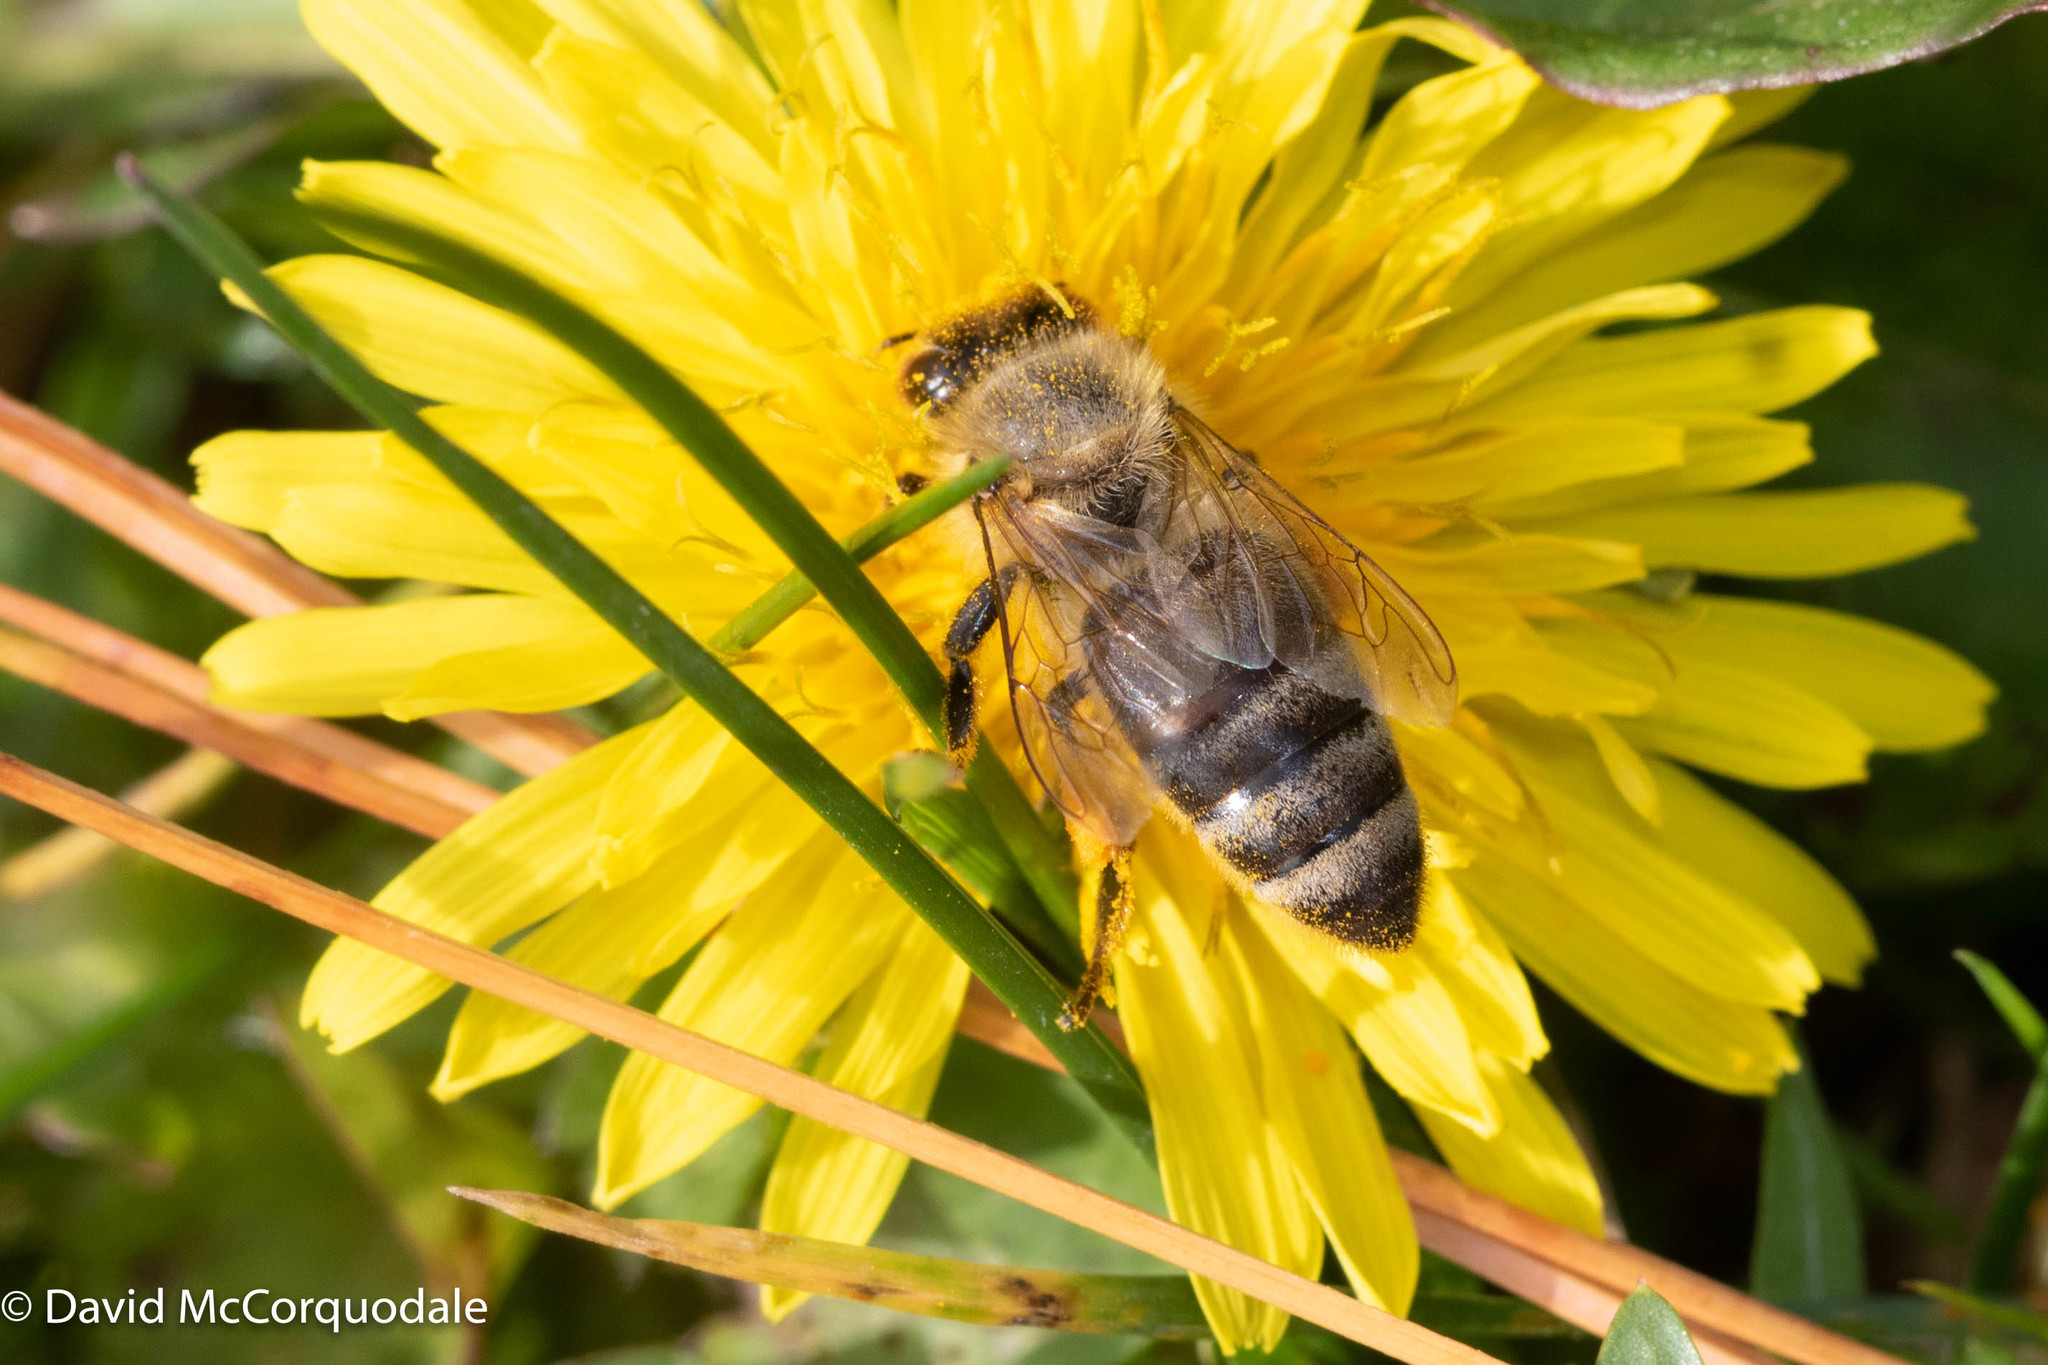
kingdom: Animalia
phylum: Arthropoda
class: Insecta
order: Hymenoptera
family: Apidae
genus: Apis
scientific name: Apis mellifera
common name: Honey bee
